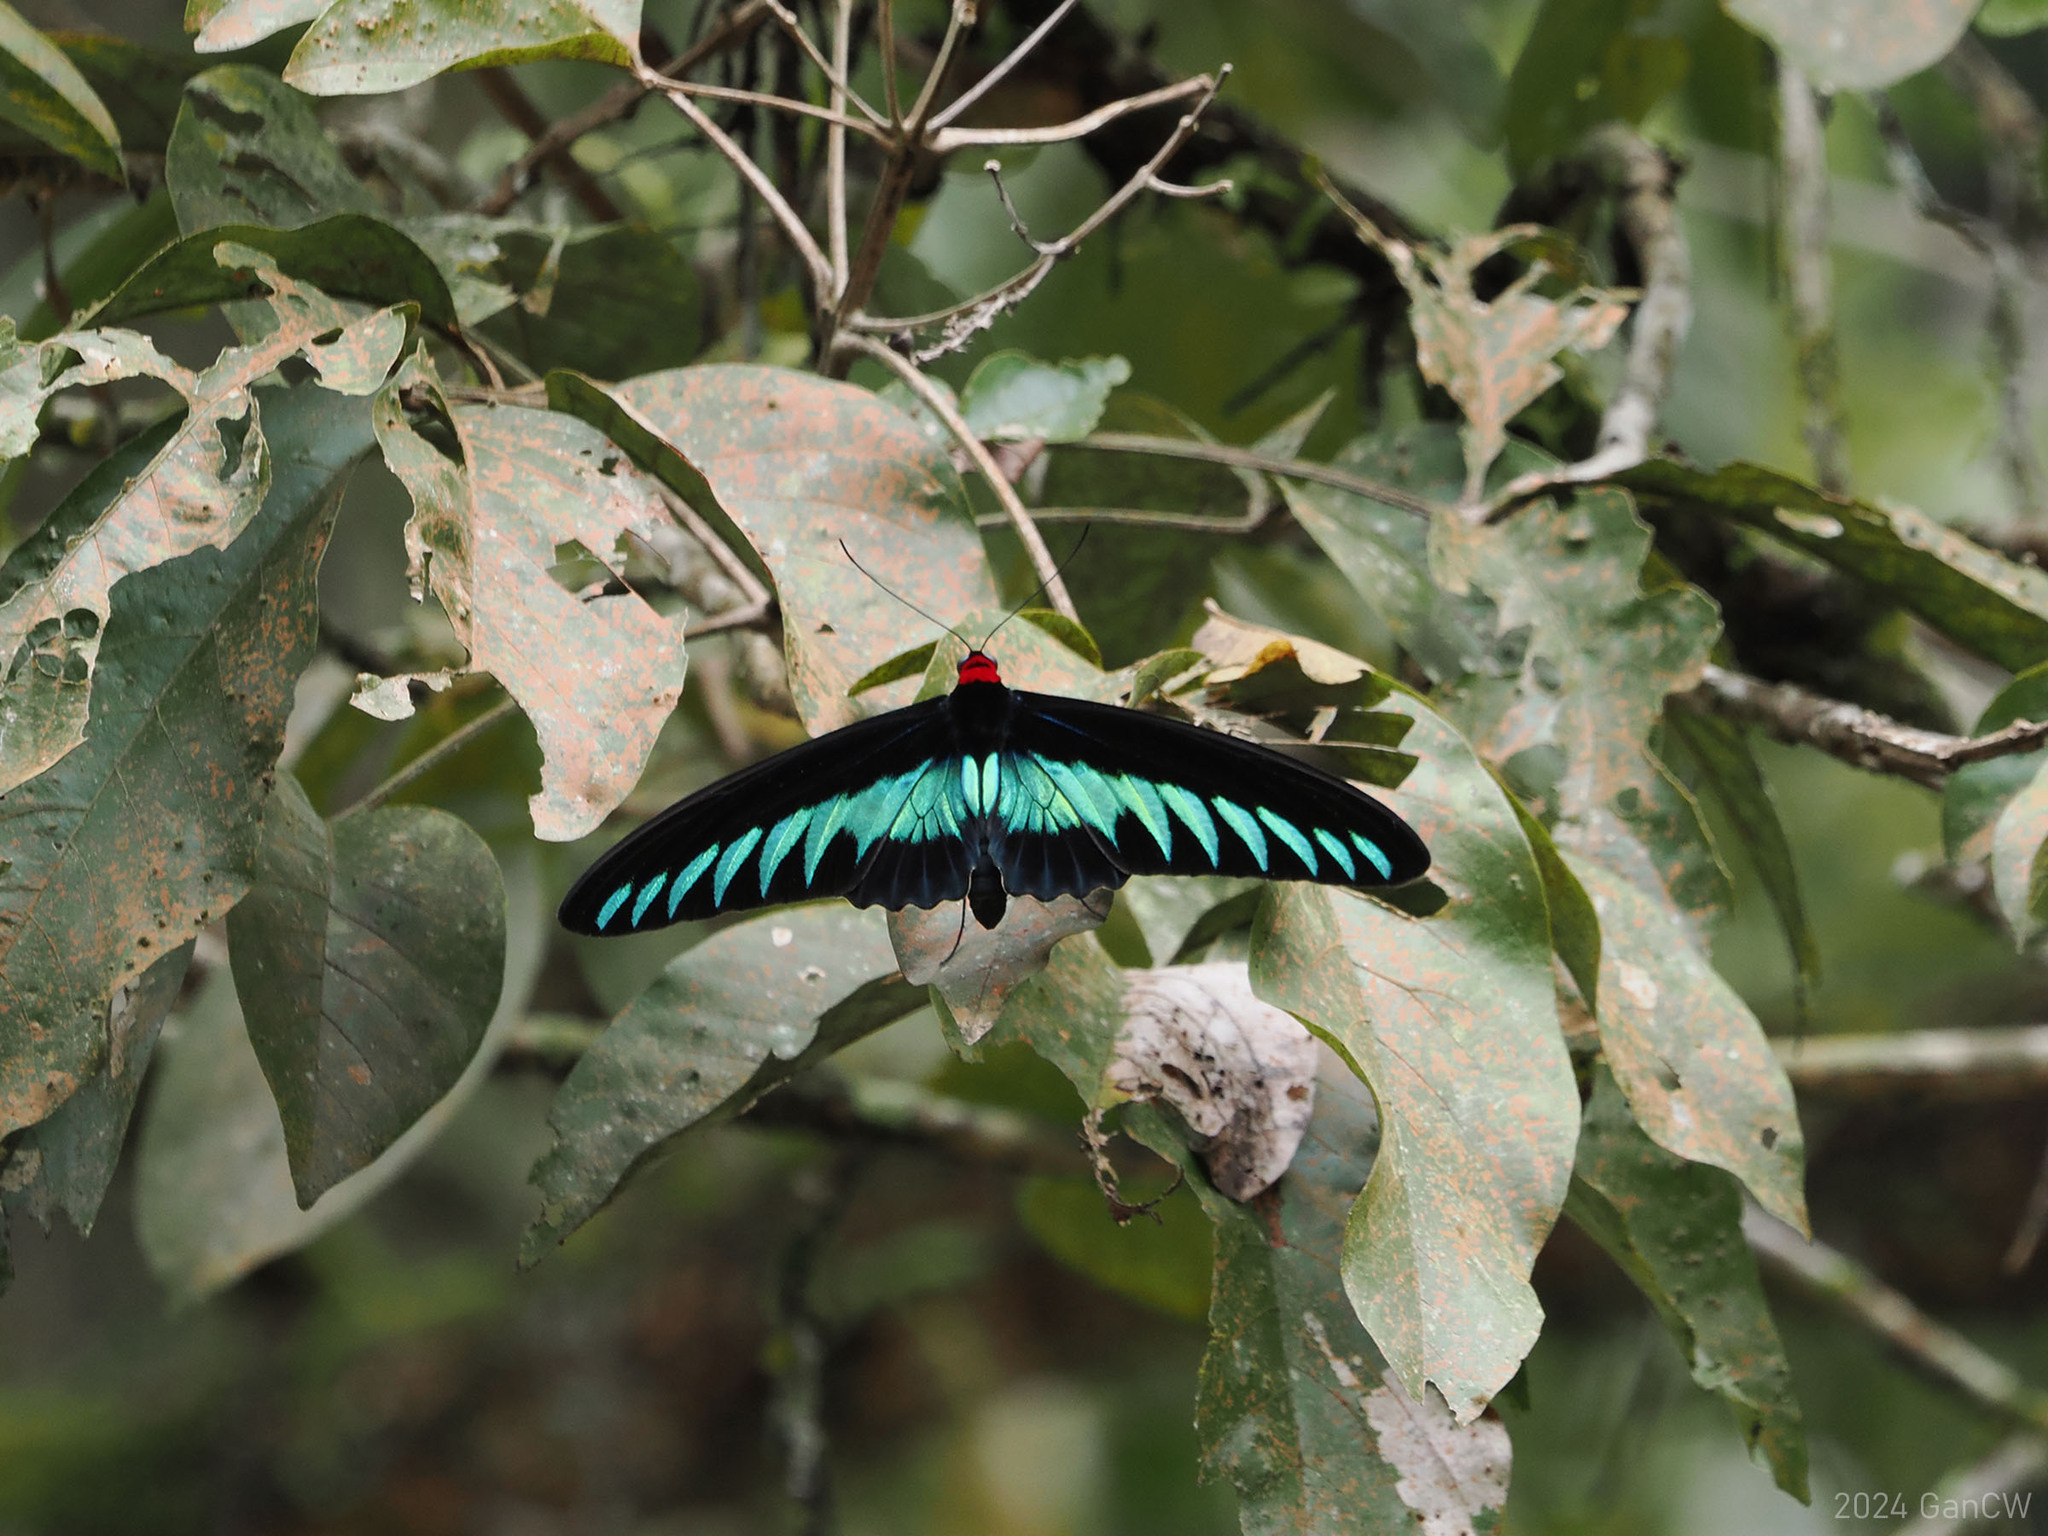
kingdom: Animalia
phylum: Arthropoda
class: Insecta
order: Lepidoptera
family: Papilionidae
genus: Trogonoptera
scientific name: Trogonoptera brookiana
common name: Raja brooke's birdwing
